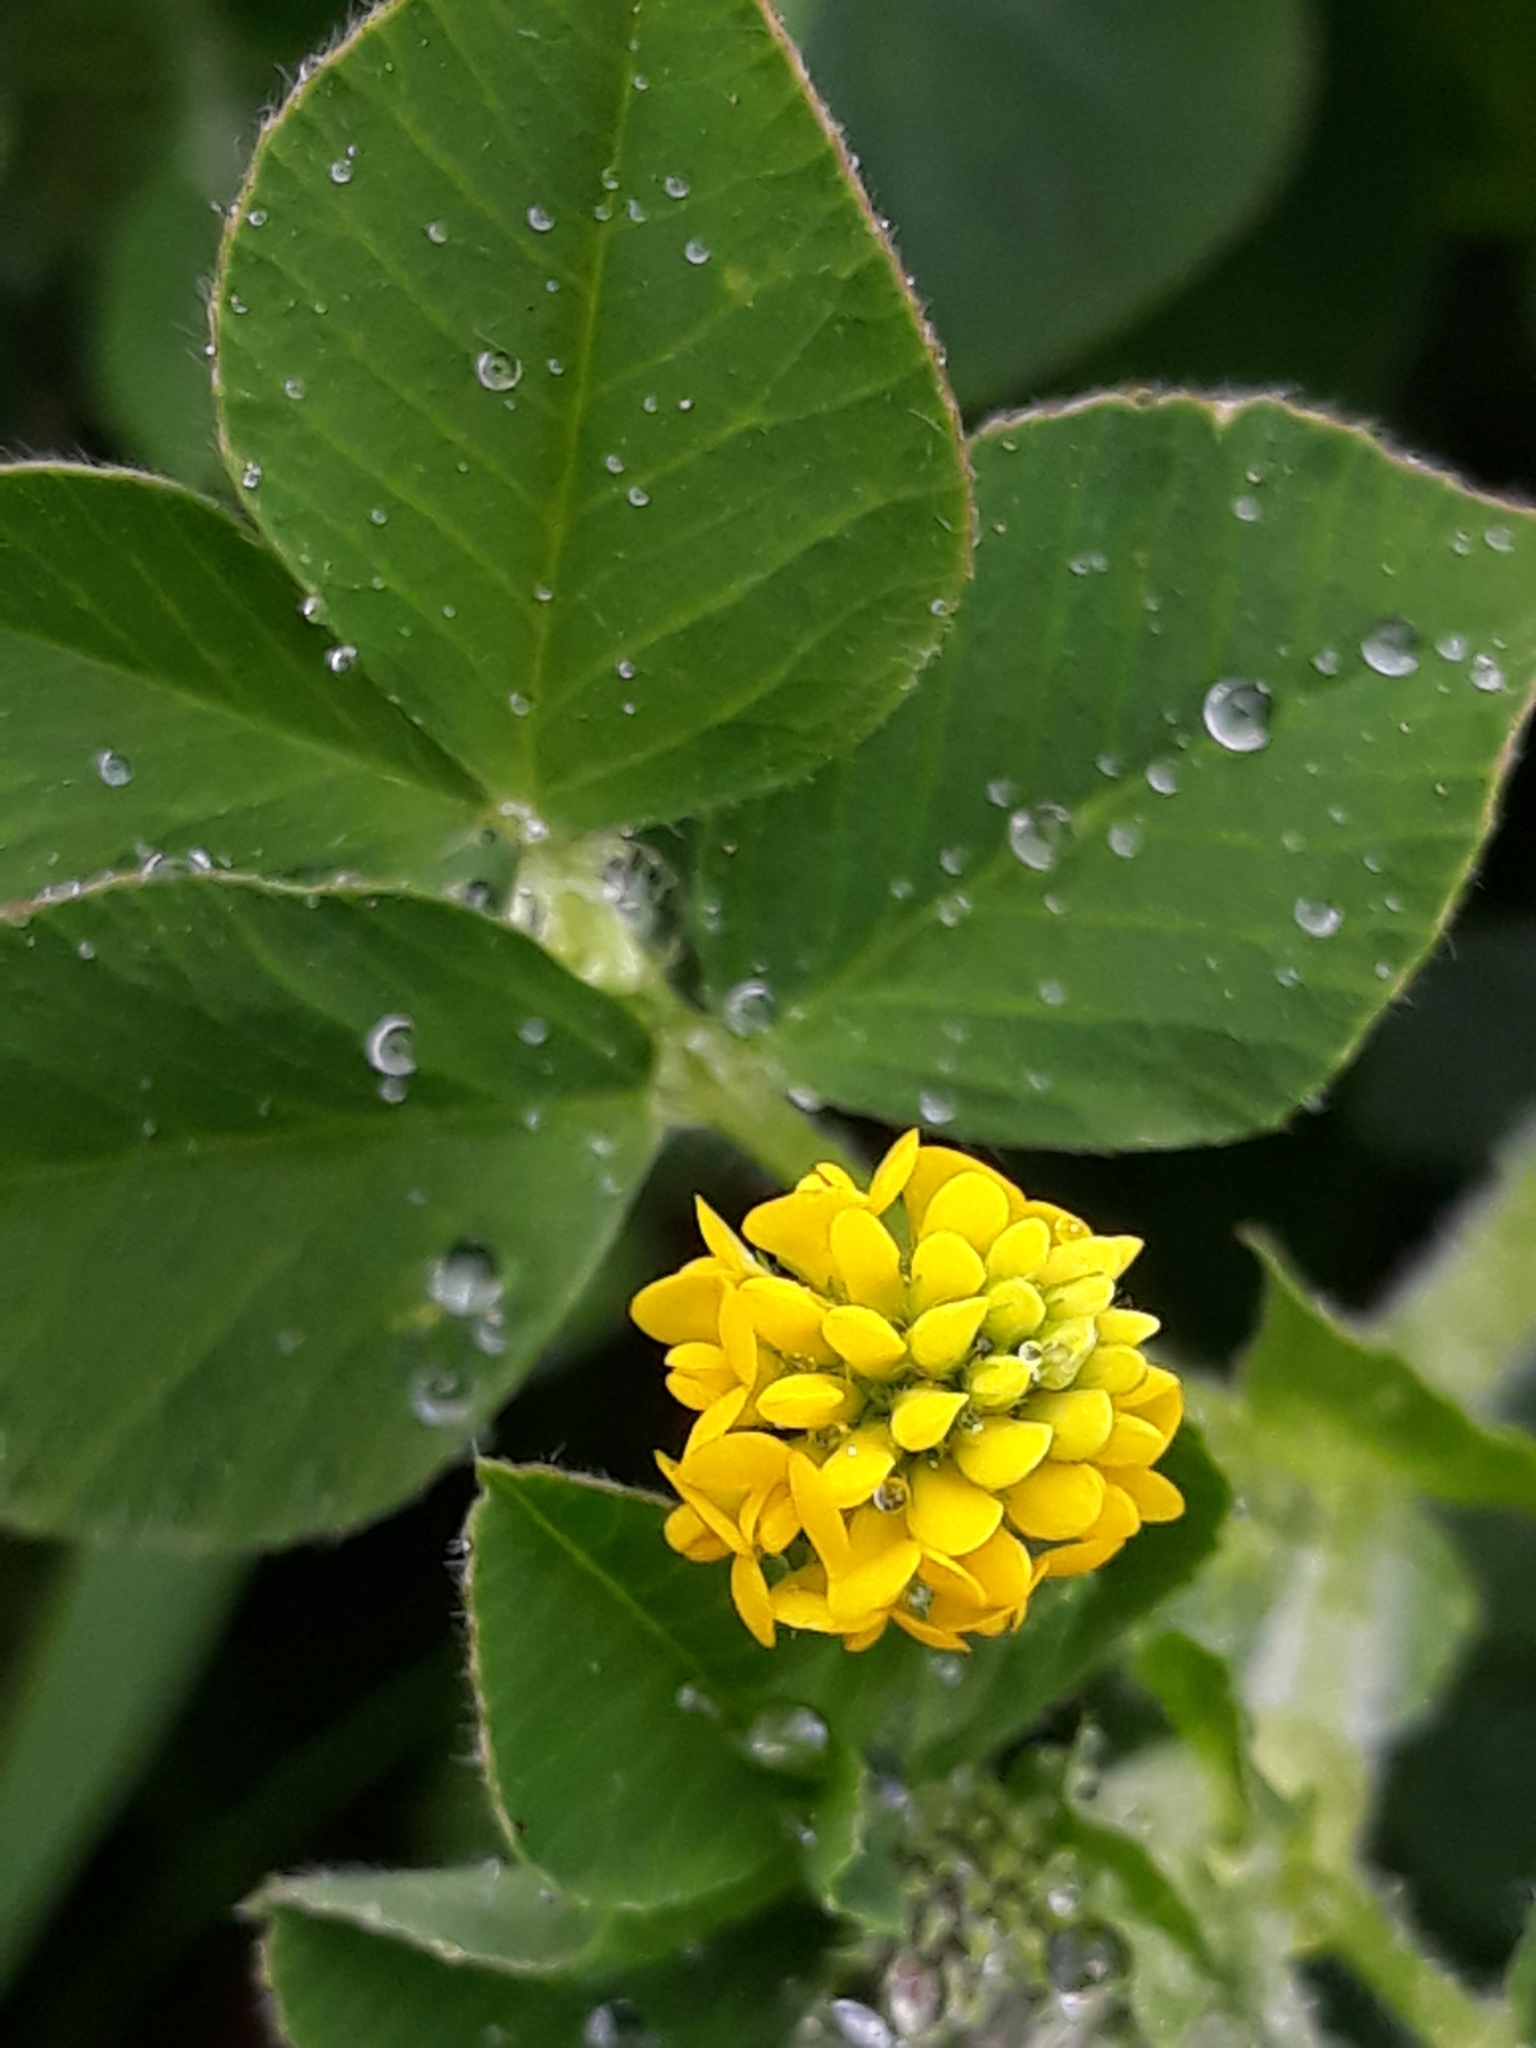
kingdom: Plantae
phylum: Tracheophyta
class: Magnoliopsida
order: Fabales
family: Fabaceae
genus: Medicago
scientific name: Medicago lupulina
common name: Black medick
